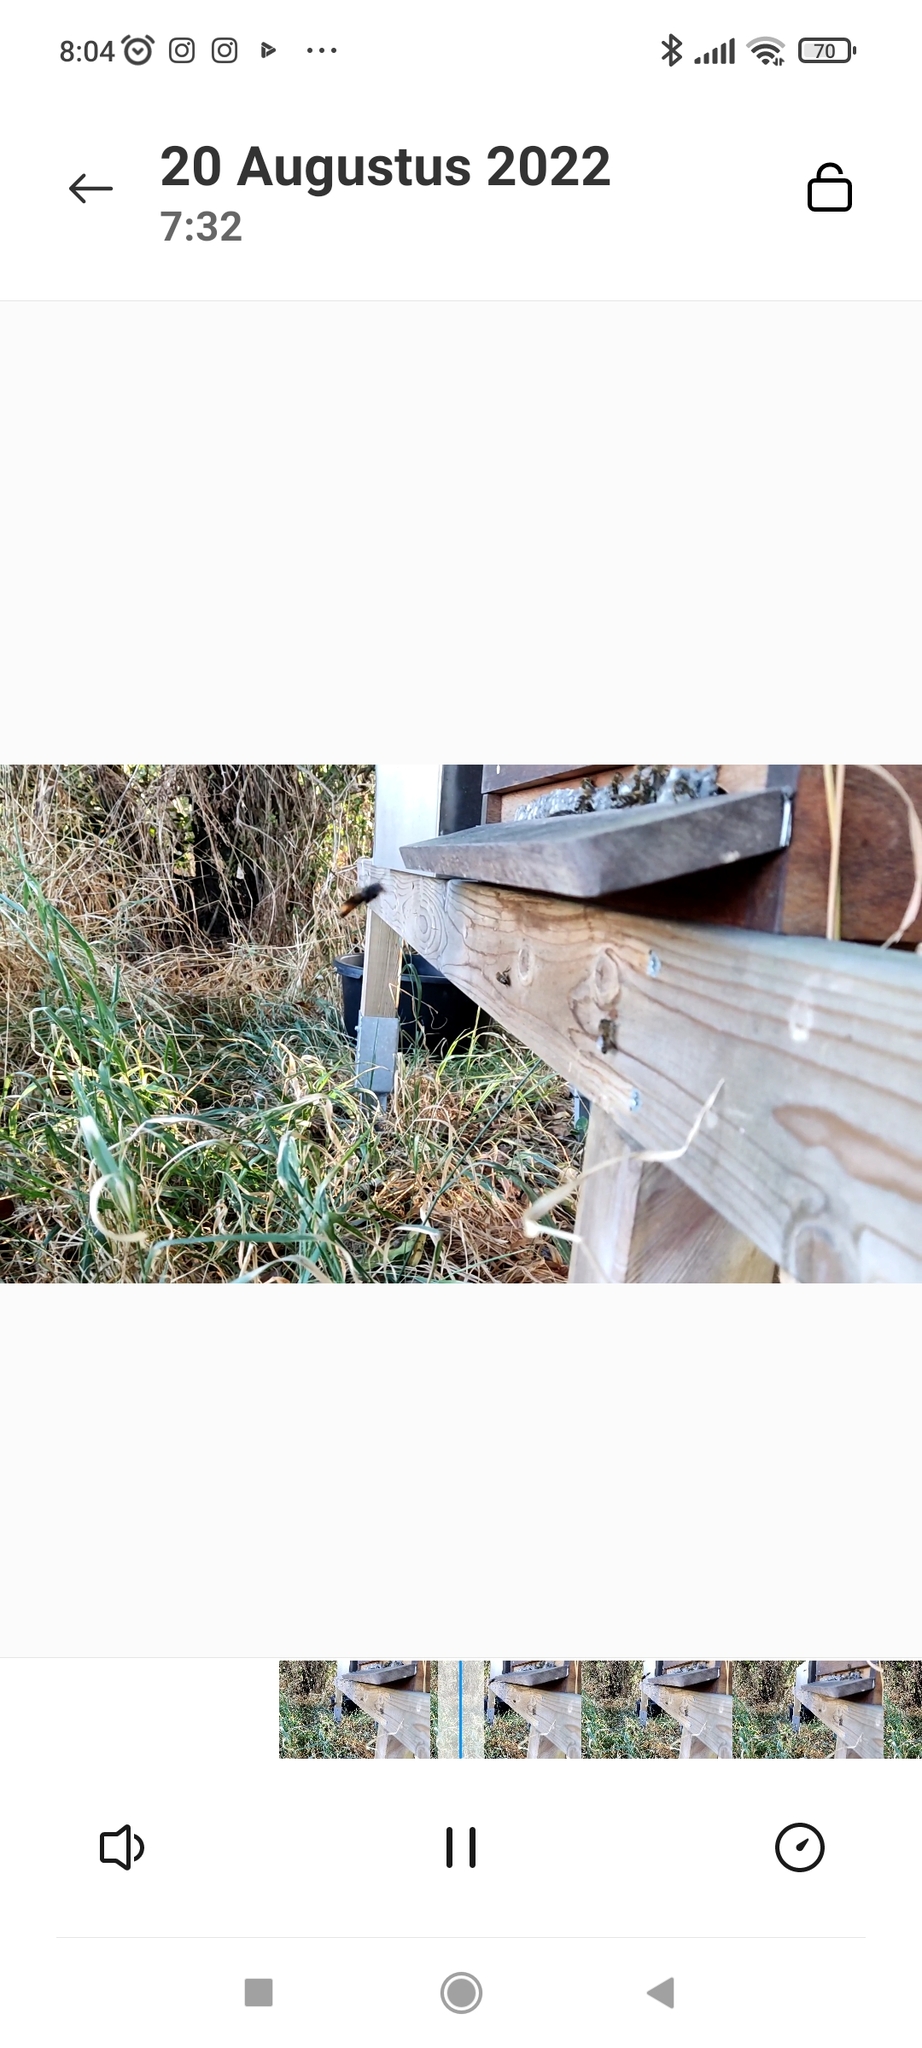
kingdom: Animalia
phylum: Arthropoda
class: Insecta
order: Hymenoptera
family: Vespidae
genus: Vespa
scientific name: Vespa velutina
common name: Asian hornet
